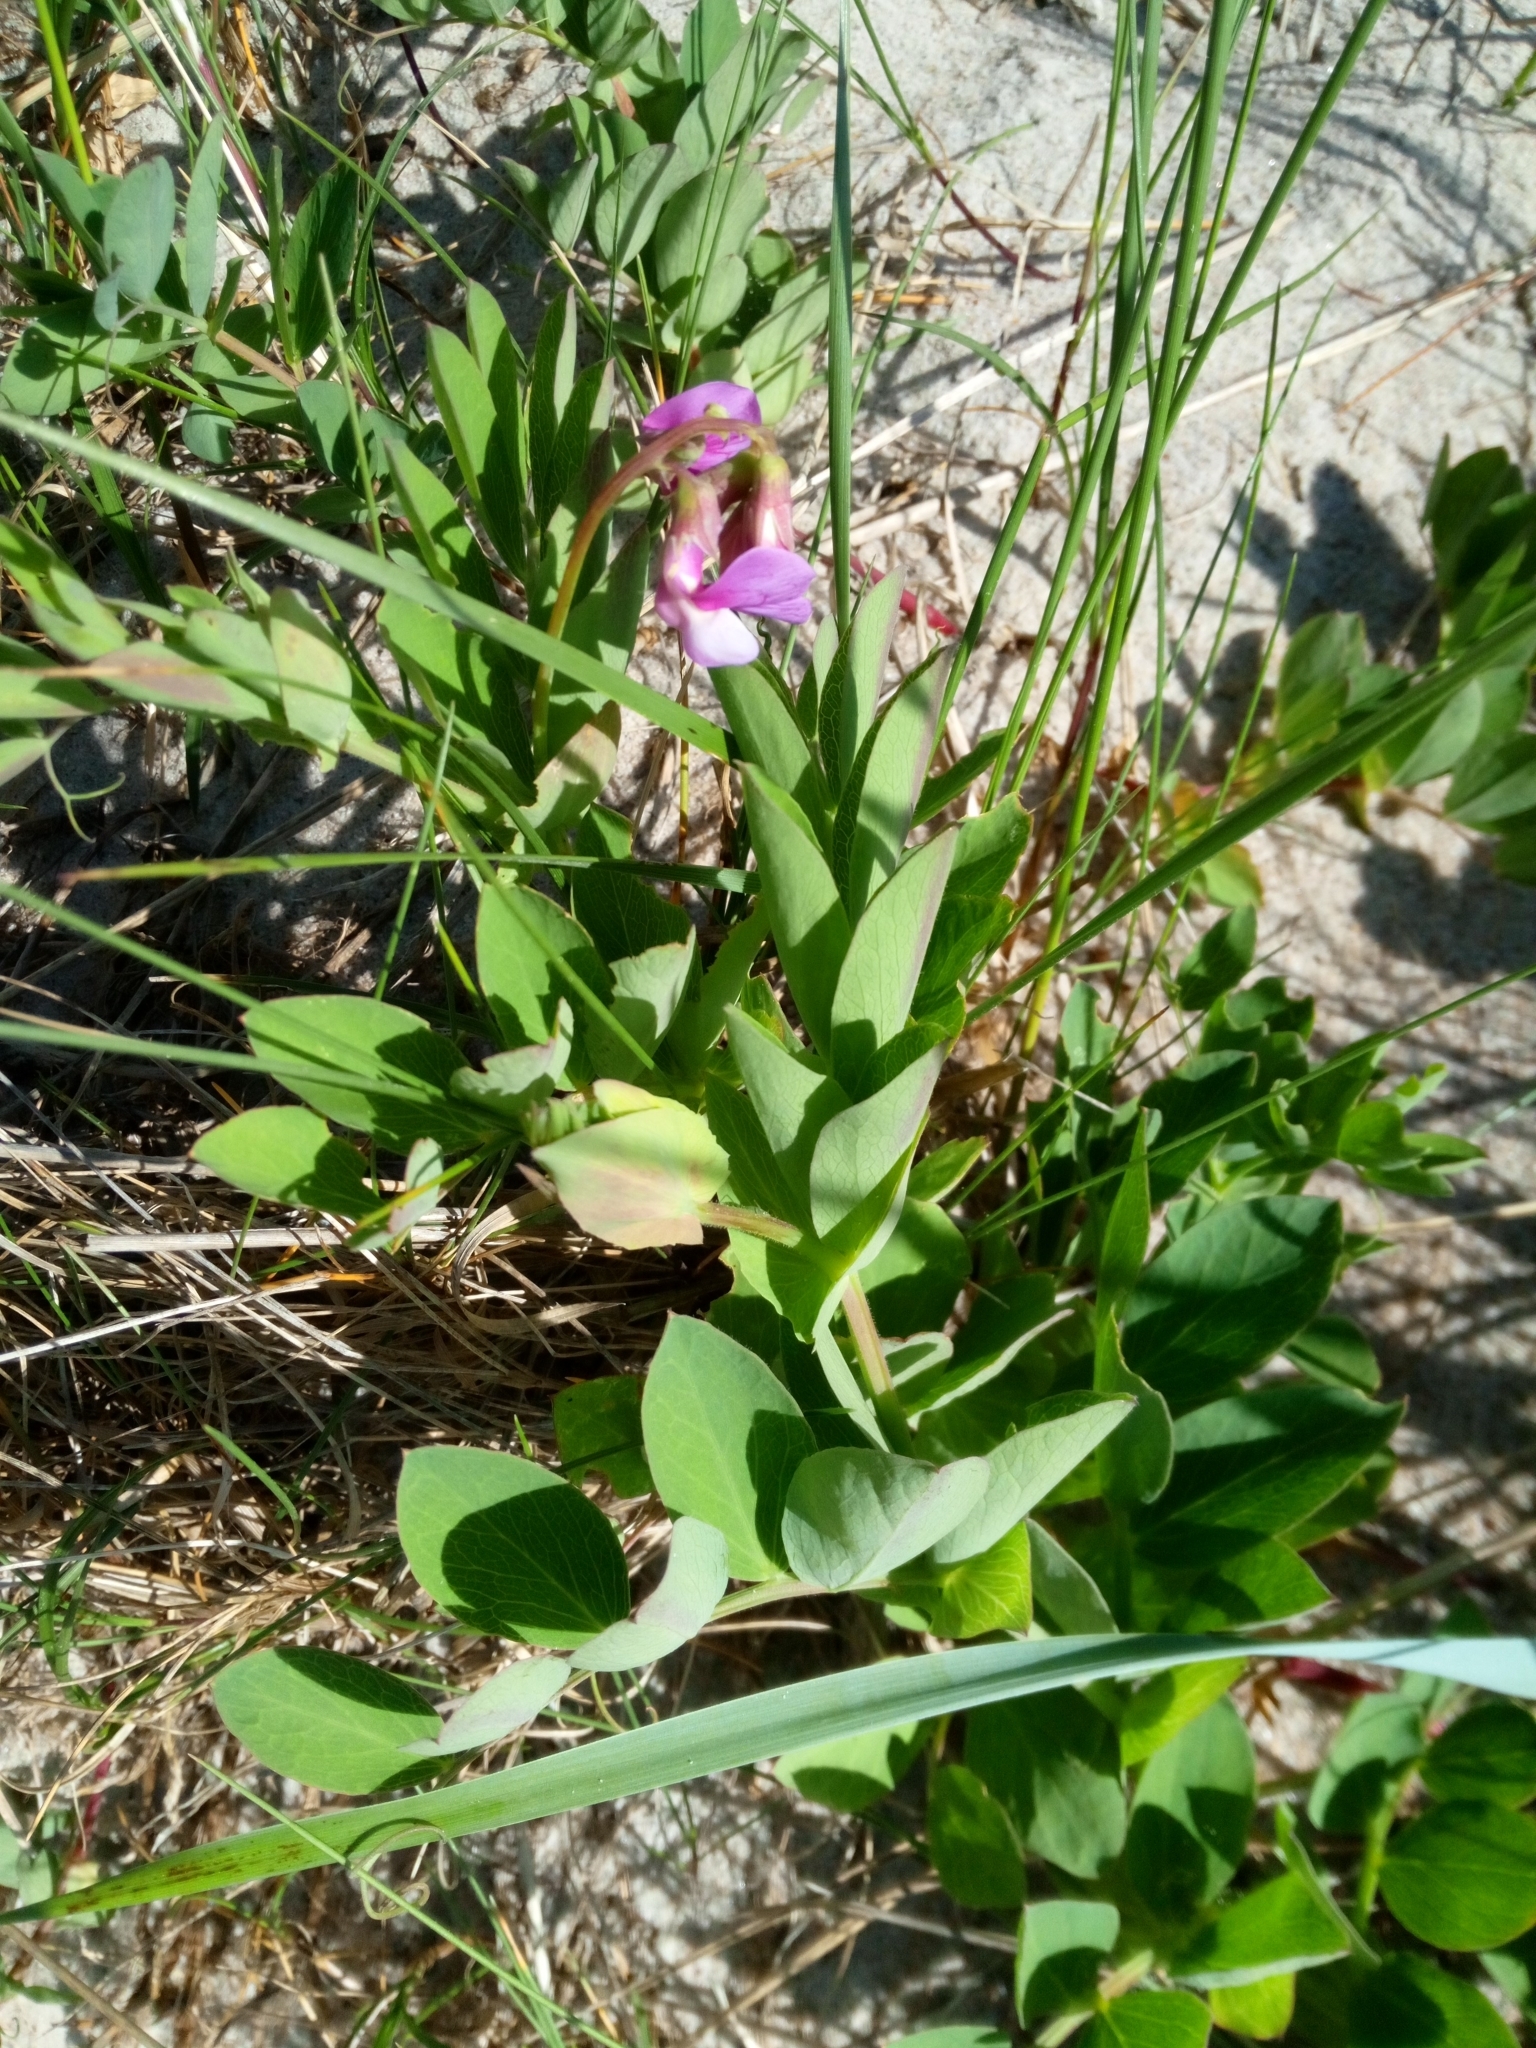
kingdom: Plantae
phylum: Tracheophyta
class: Magnoliopsida
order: Fabales
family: Fabaceae
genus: Lathyrus
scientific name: Lathyrus japonicus
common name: Sea pea
